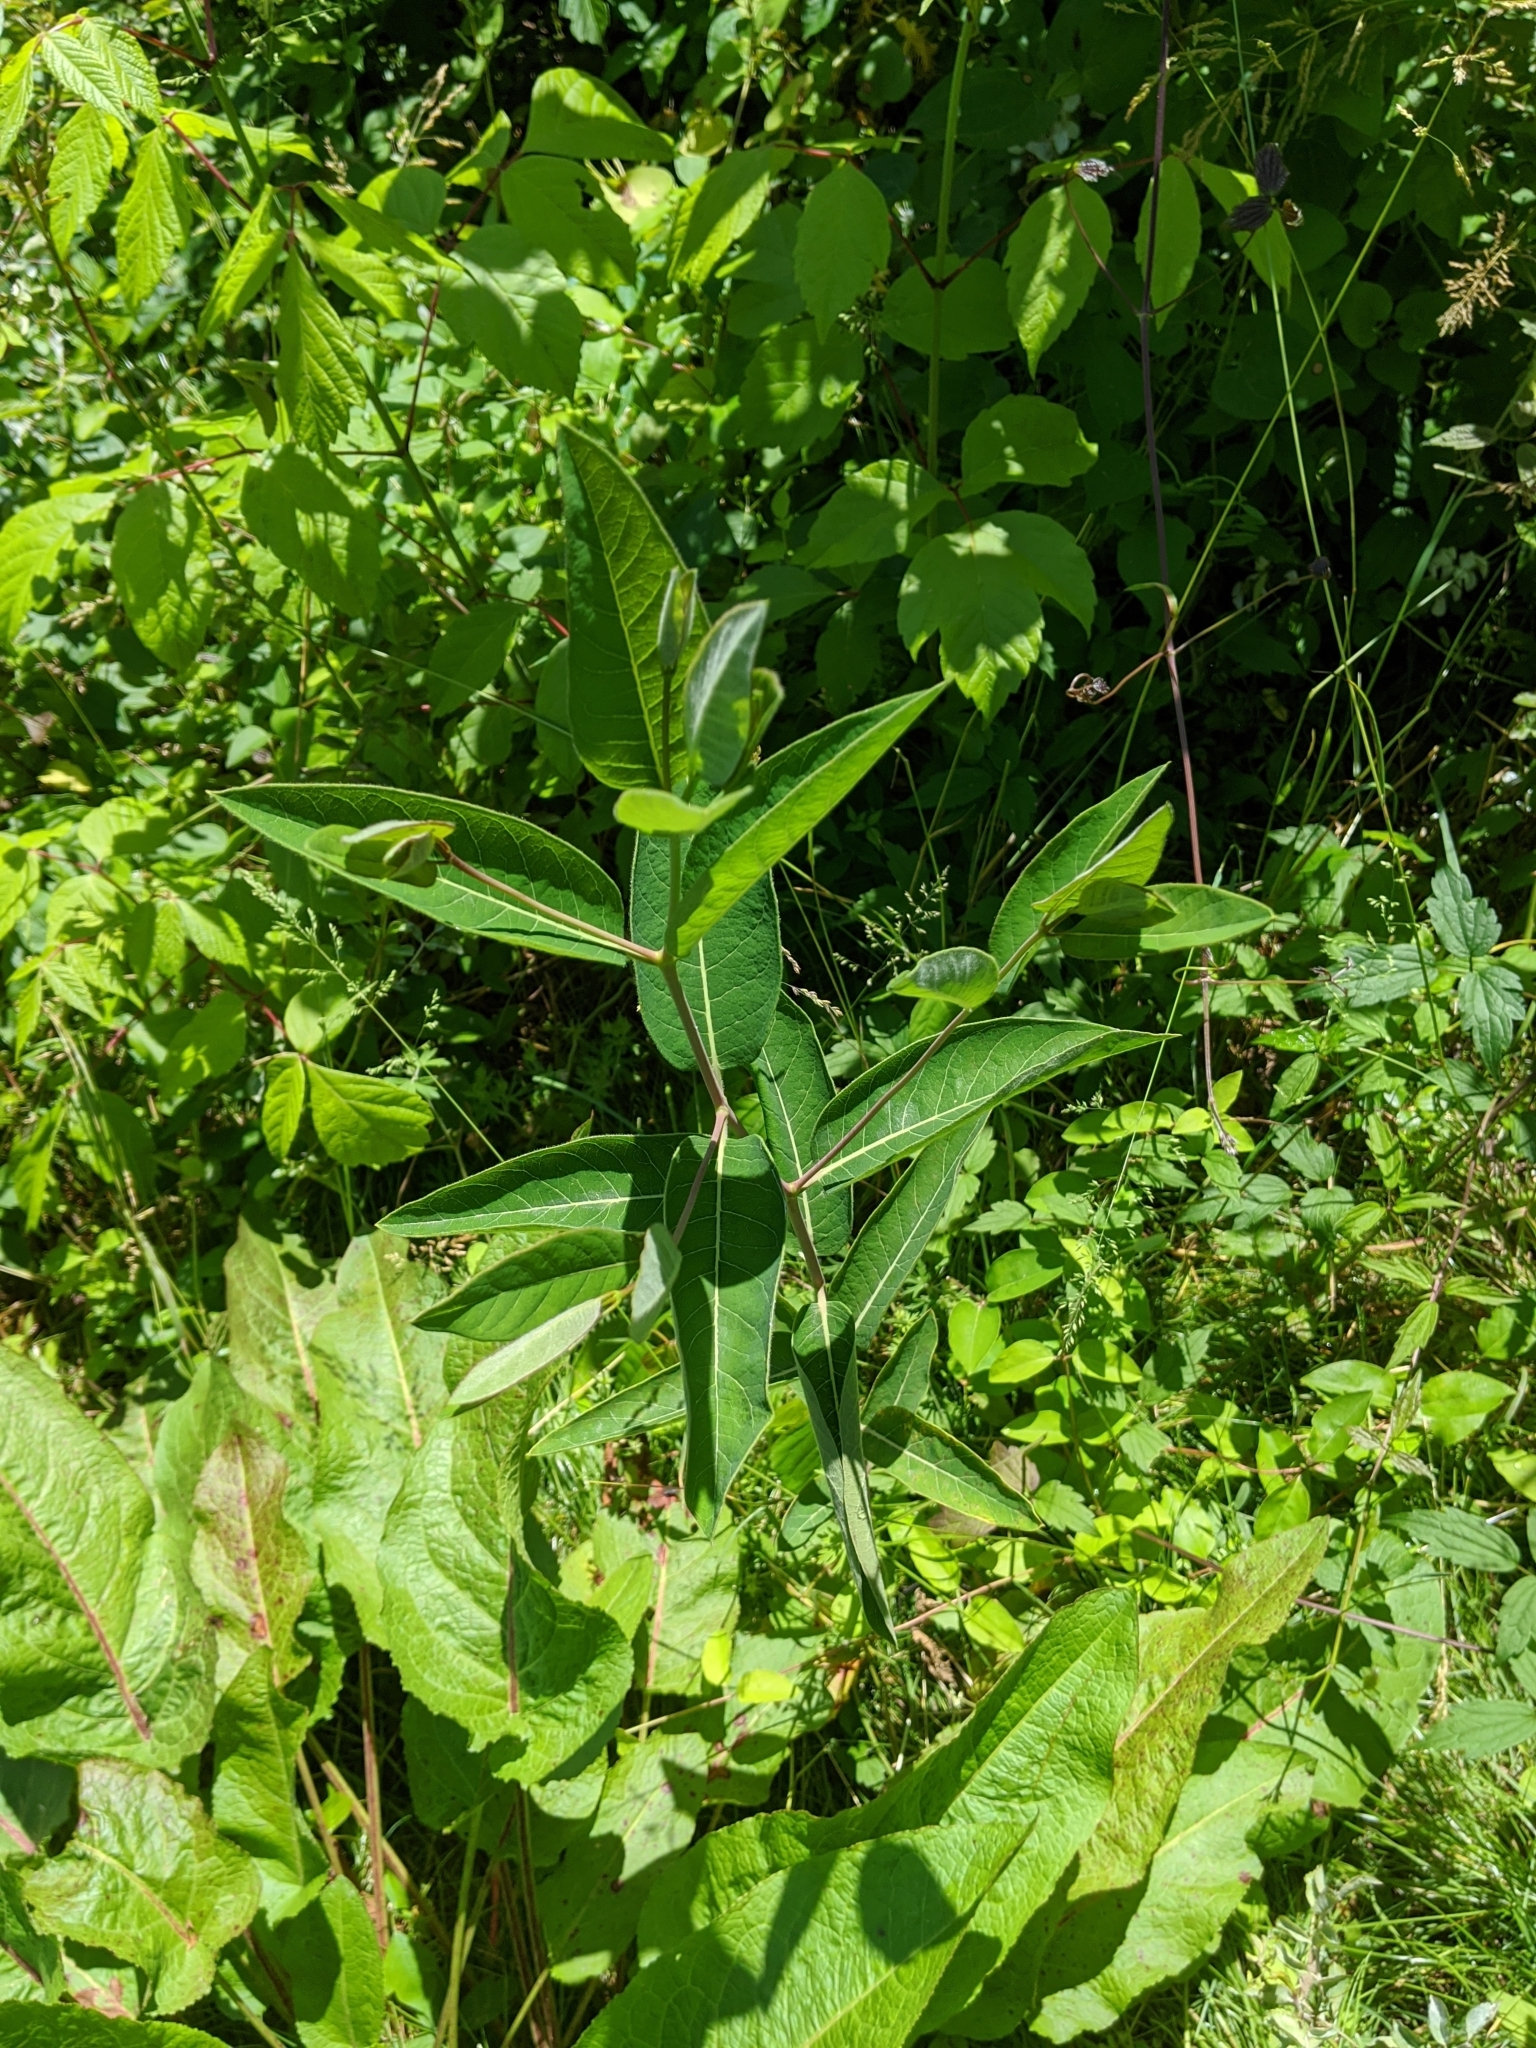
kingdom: Plantae
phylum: Tracheophyta
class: Magnoliopsida
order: Gentianales
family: Apocynaceae
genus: Apocynum
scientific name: Apocynum cannabinum
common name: Hemp dogbane
